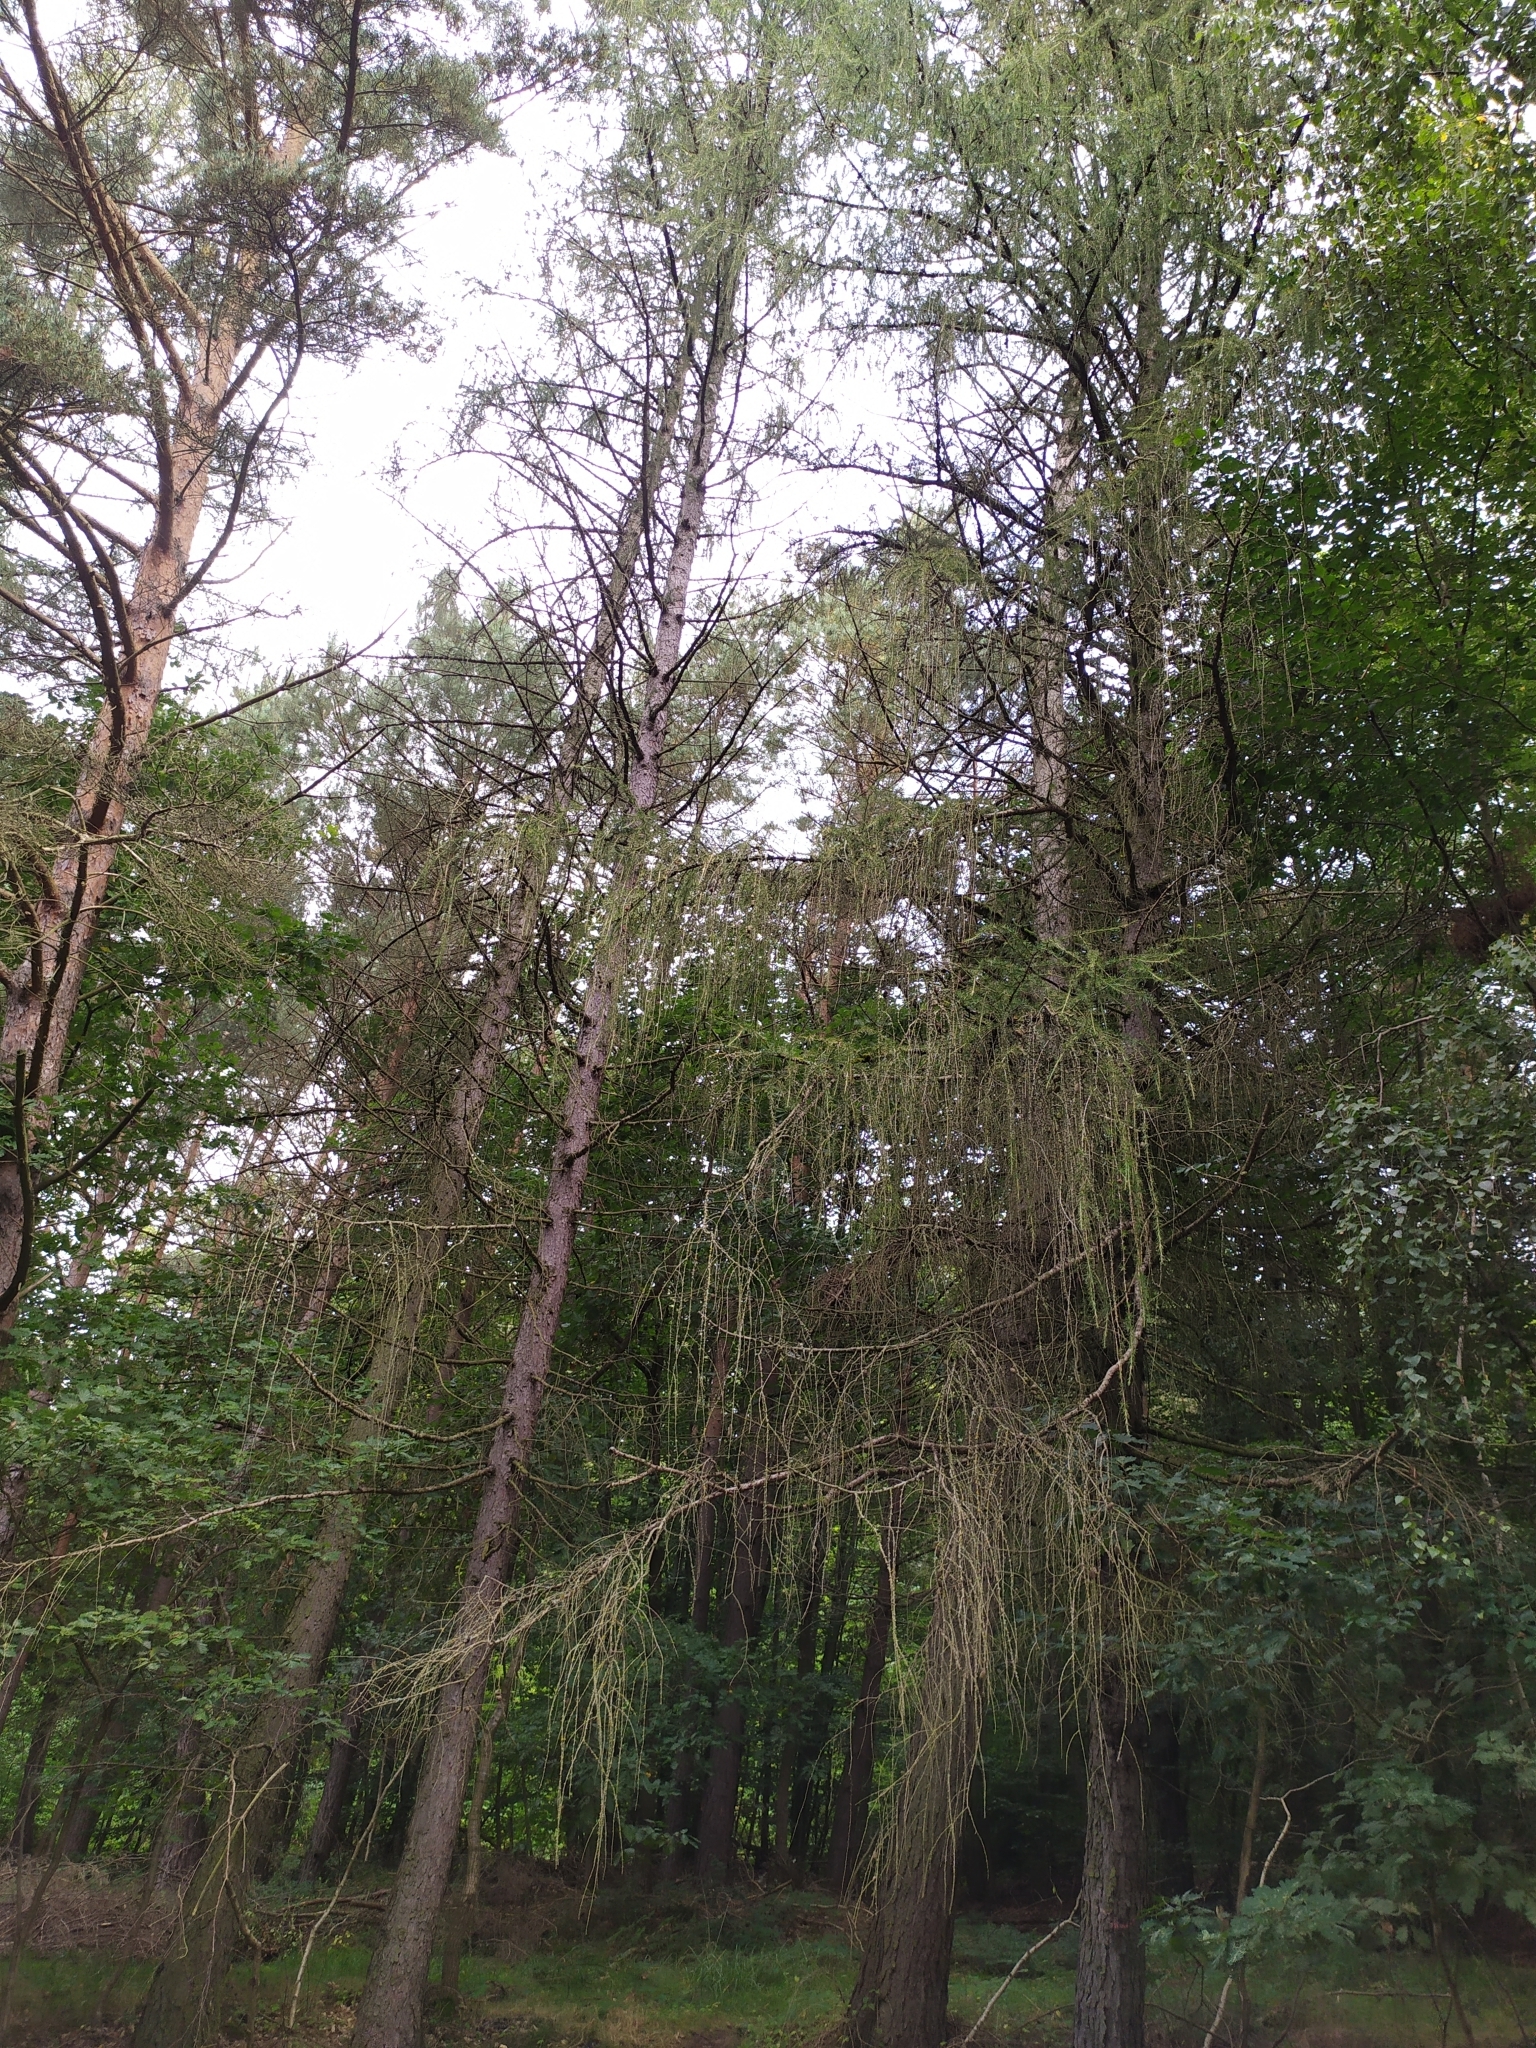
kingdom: Plantae
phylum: Tracheophyta
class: Pinopsida
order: Pinales
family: Pinaceae
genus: Larix
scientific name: Larix decidua
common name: European larch
